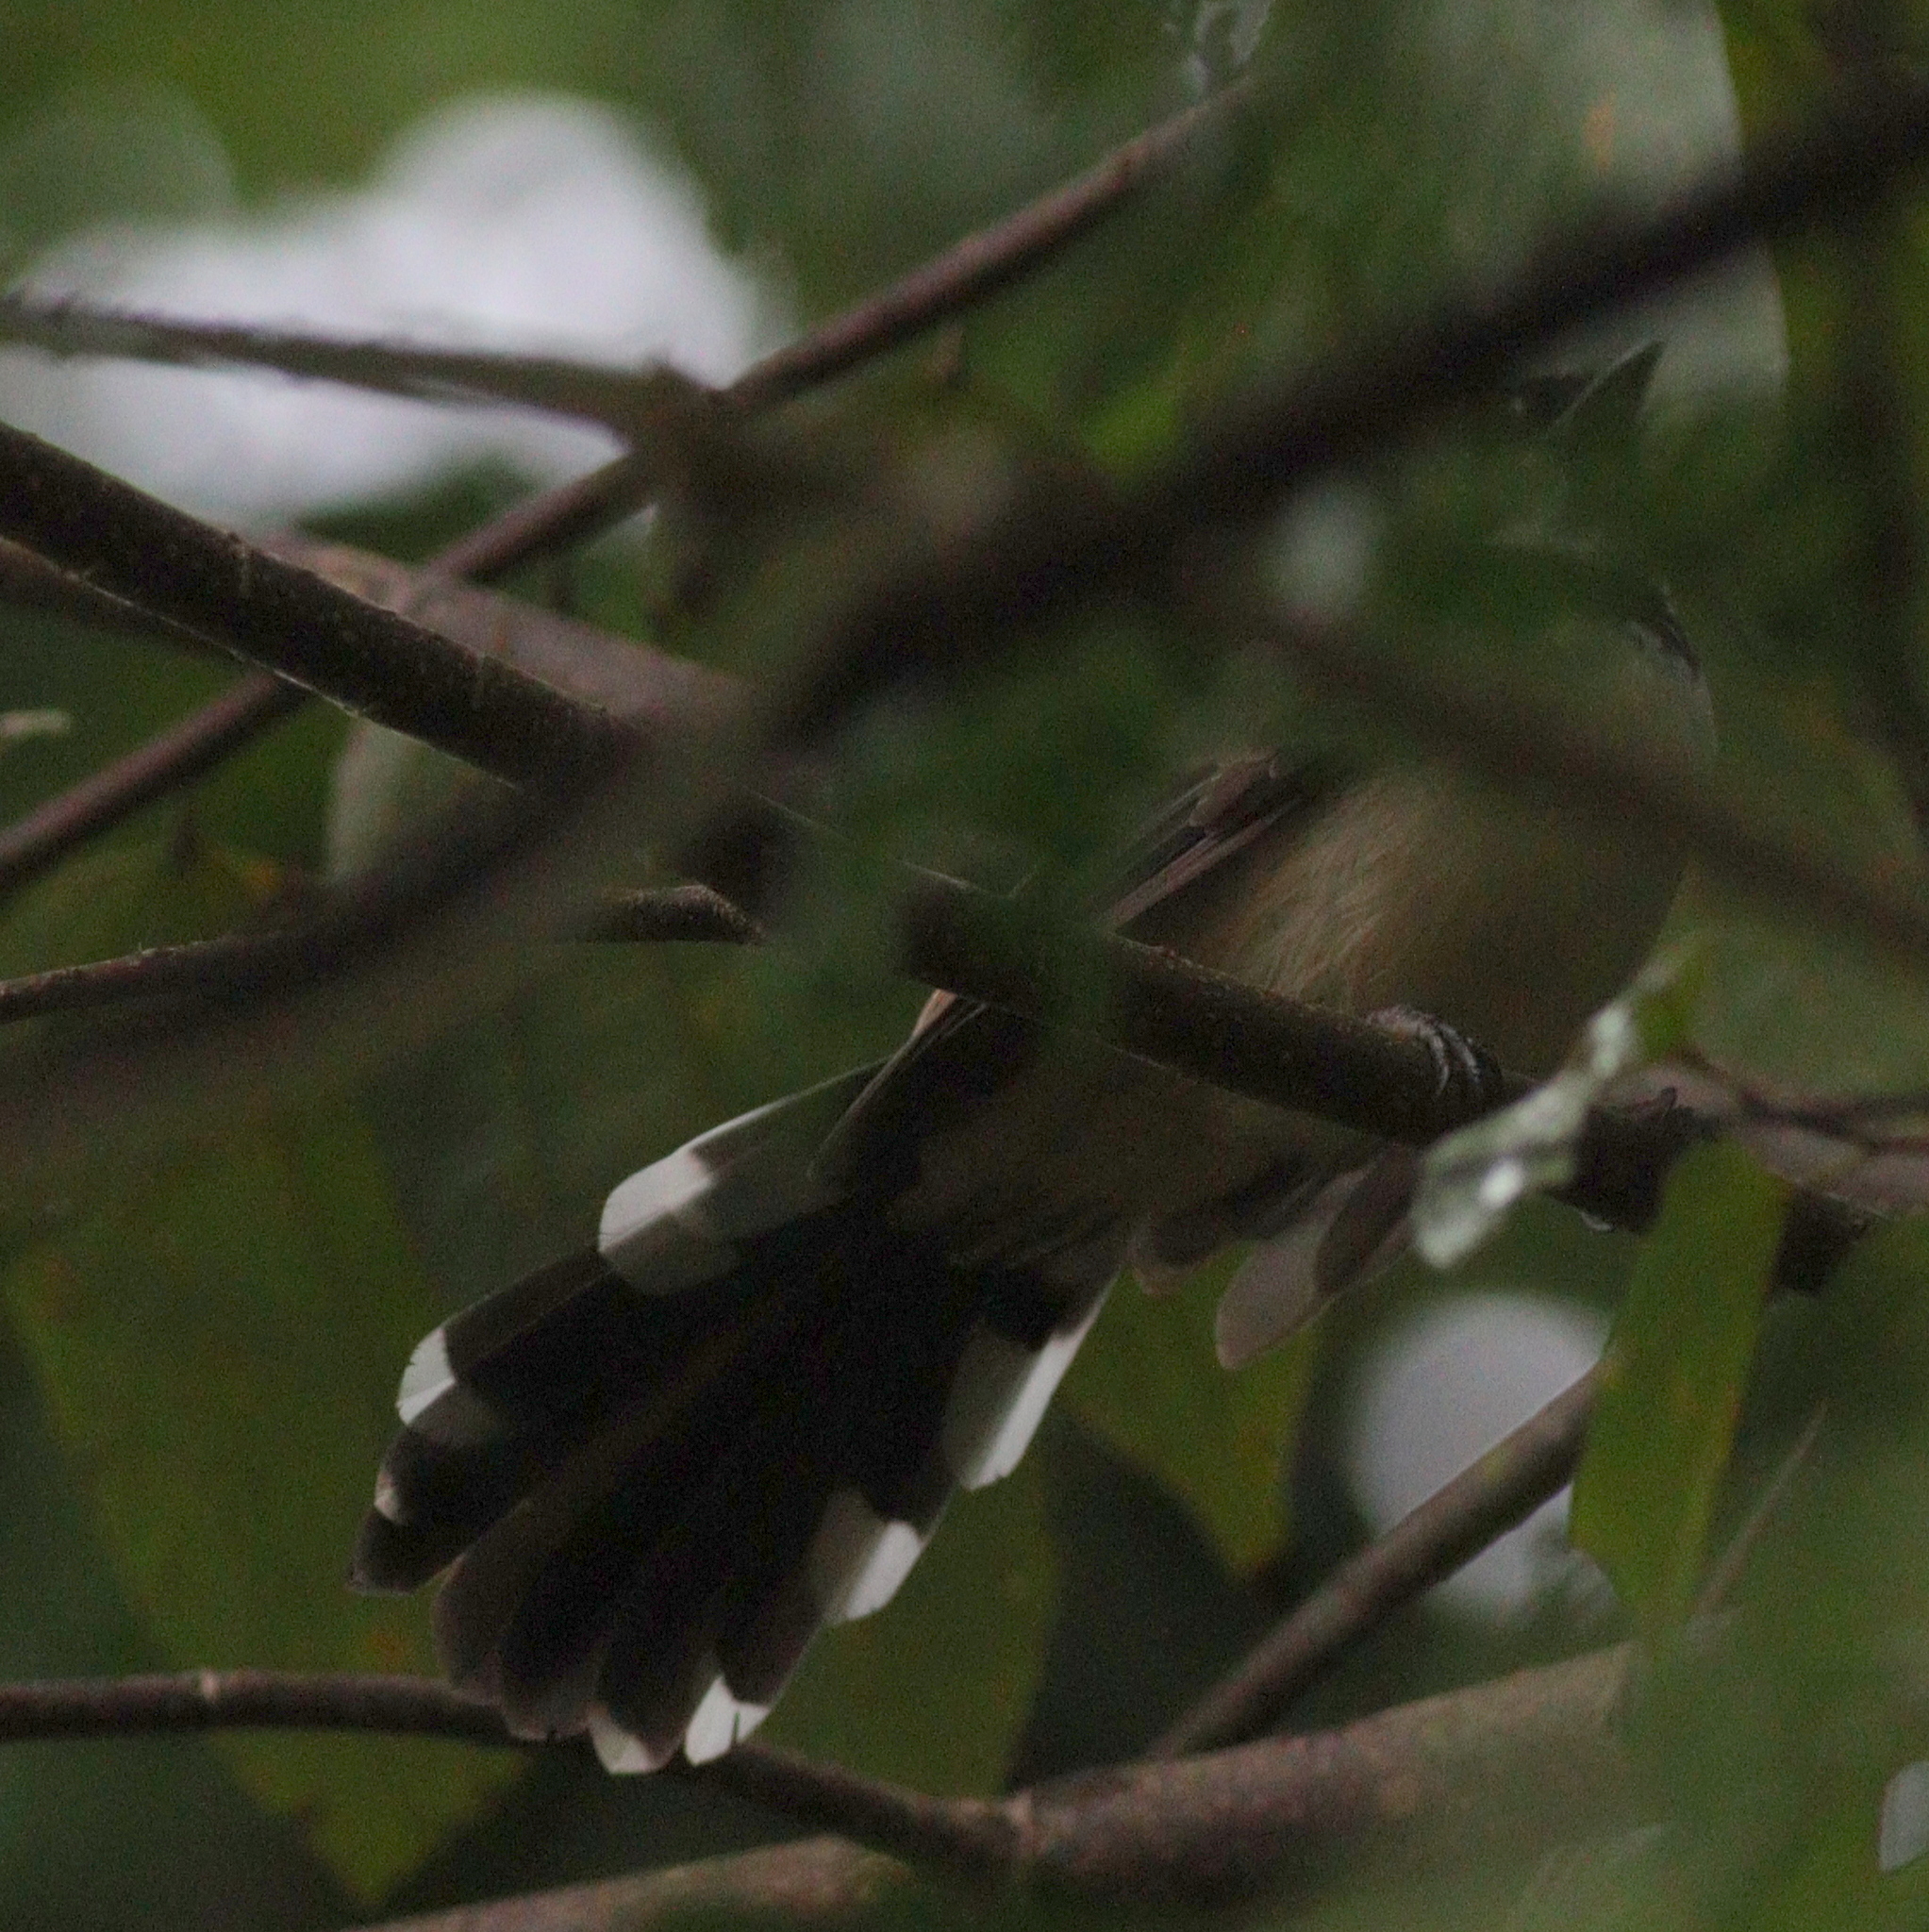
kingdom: Animalia
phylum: Chordata
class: Aves
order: Passeriformes
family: Rhipiduridae
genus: Rhipidura
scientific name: Rhipidura javanica
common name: Pied fantail
